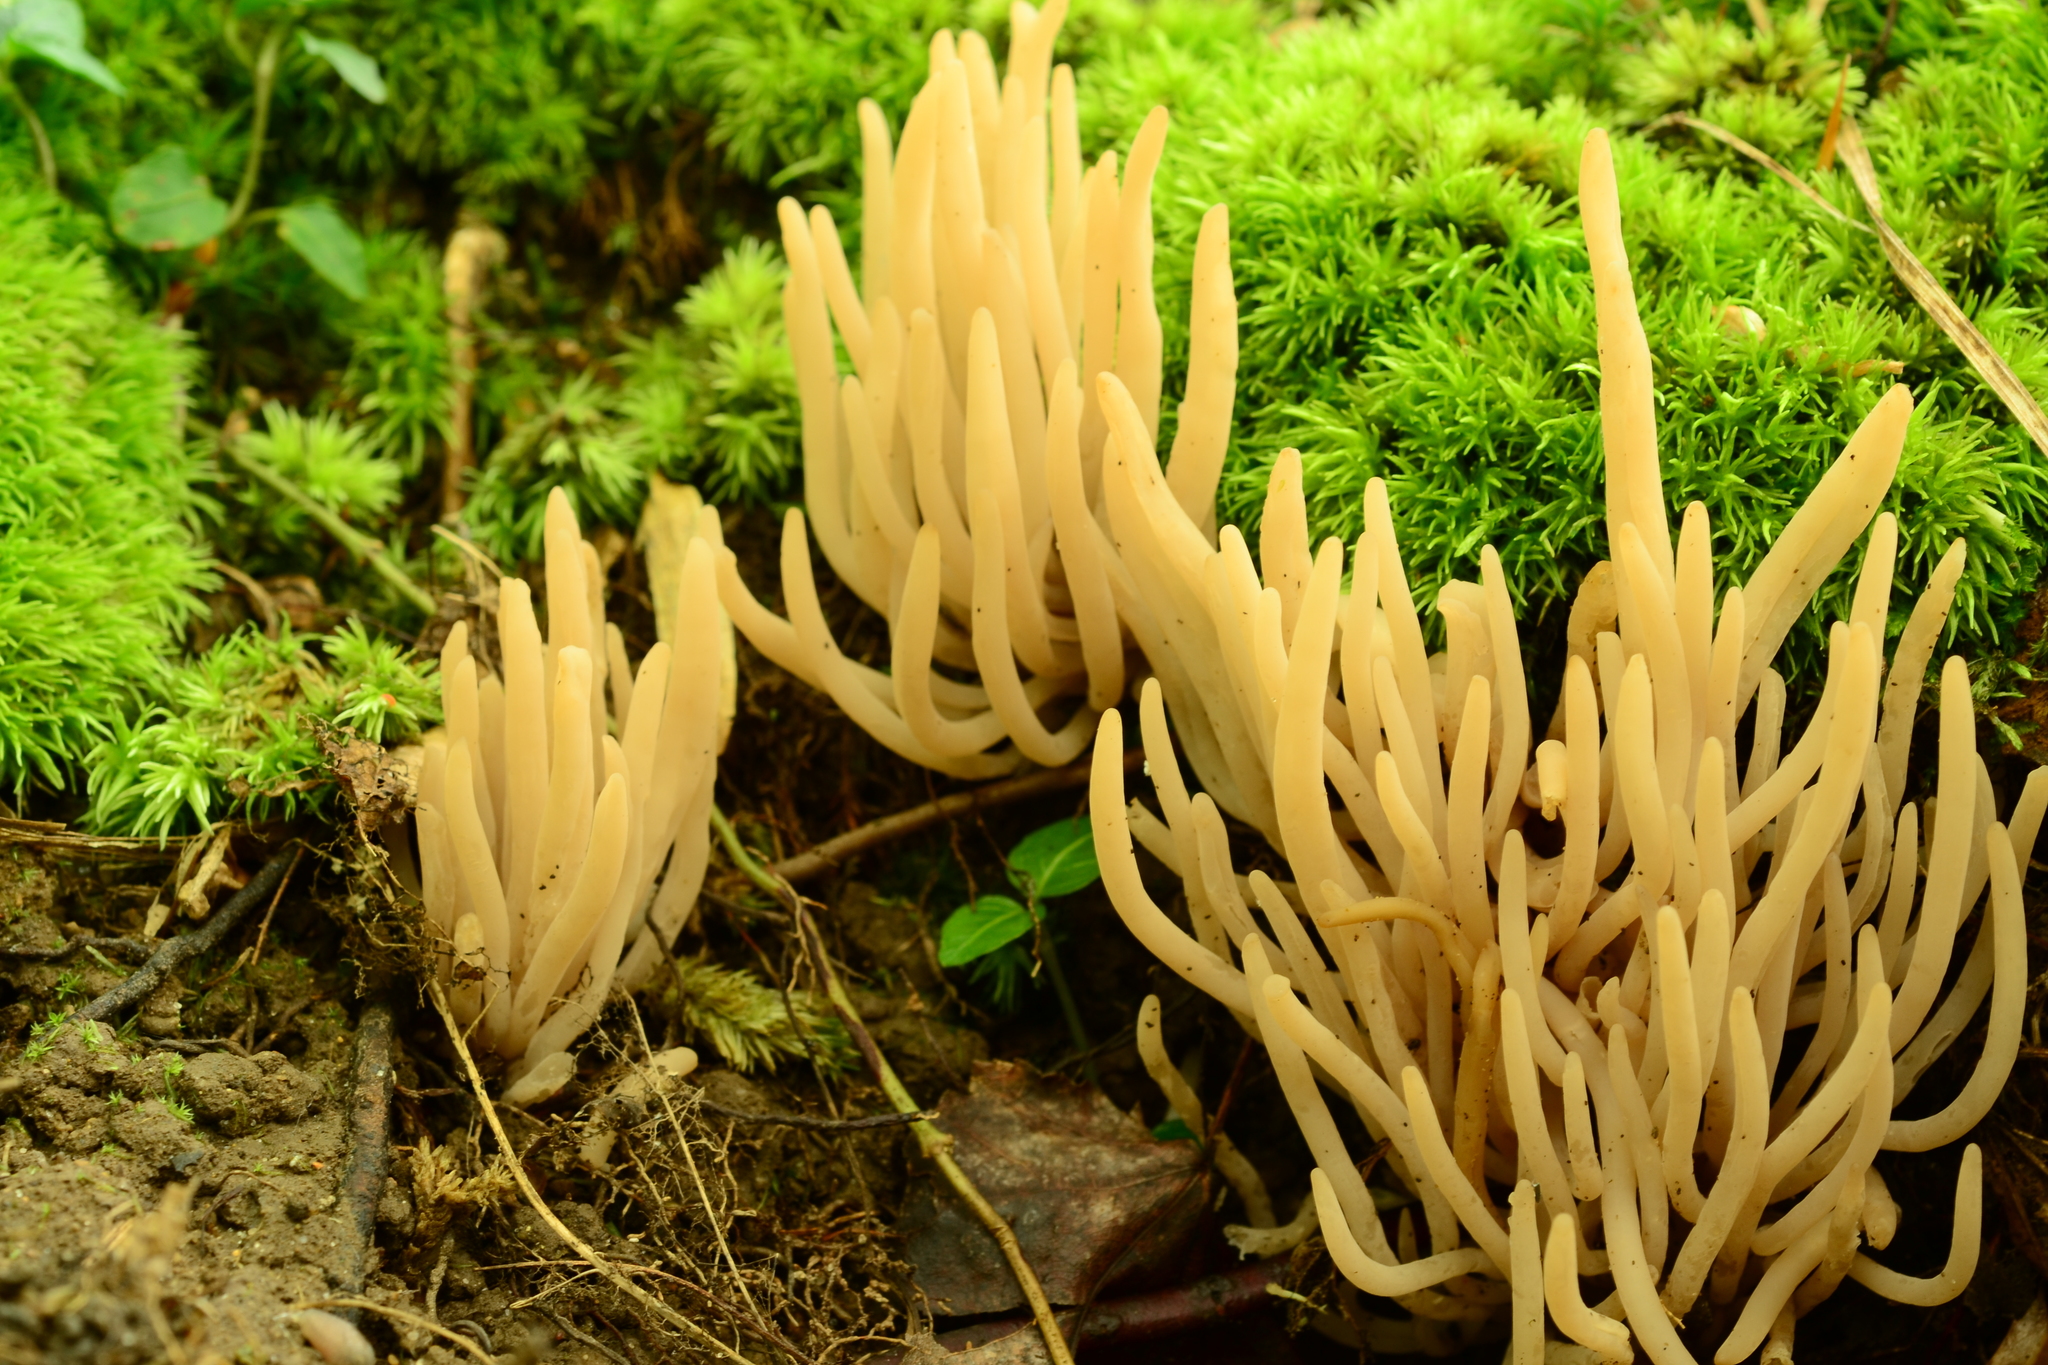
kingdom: Fungi
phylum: Basidiomycota
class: Agaricomycetes
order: Agaricales
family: Clavariaceae
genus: Clavaria
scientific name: Clavaria fumosa
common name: Smoky spindles
